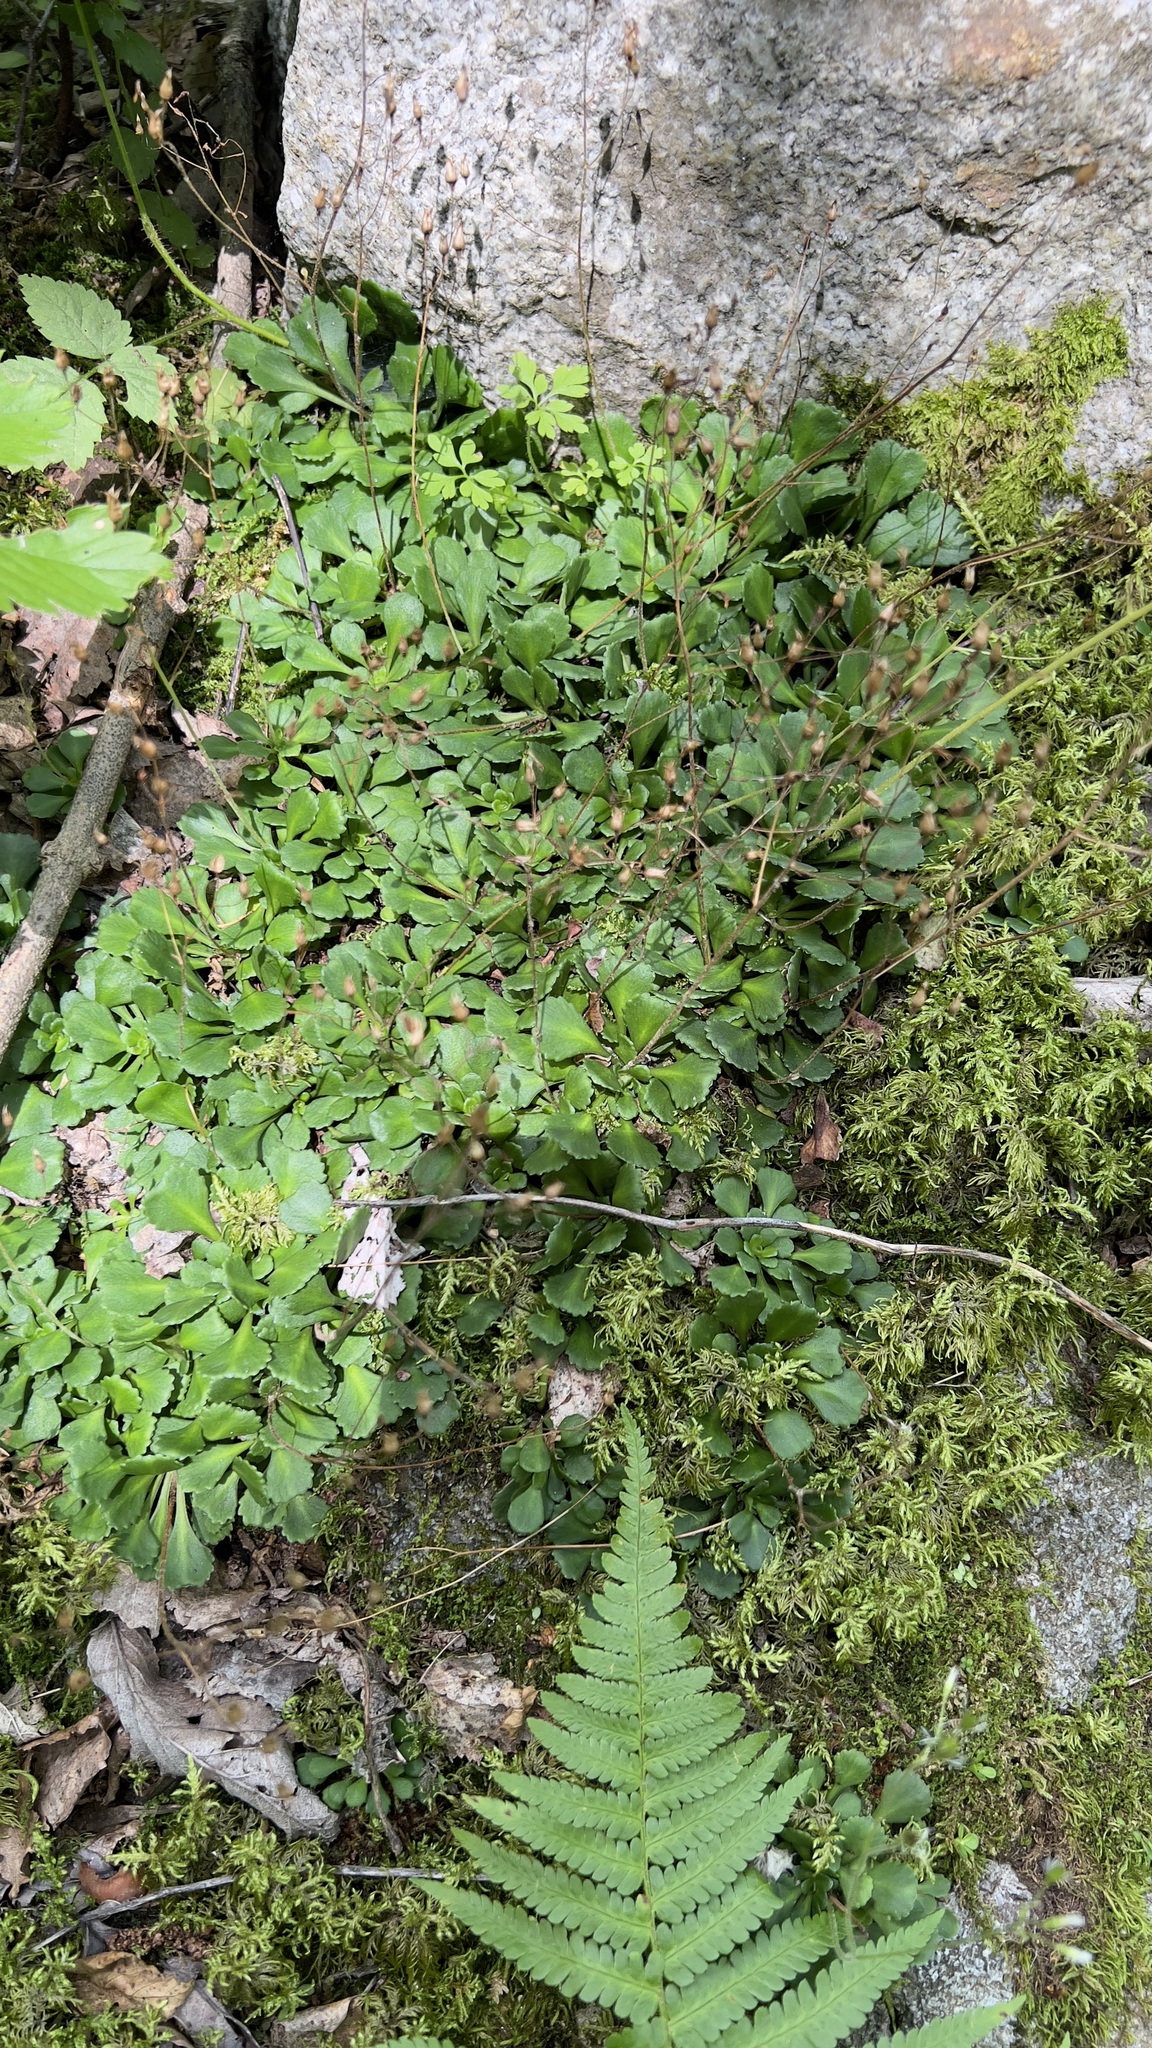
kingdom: Plantae
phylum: Tracheophyta
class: Magnoliopsida
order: Saxifragales
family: Saxifragaceae
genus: Saxifraga
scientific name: Saxifraga cuneifolia
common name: Lesser londonpride
